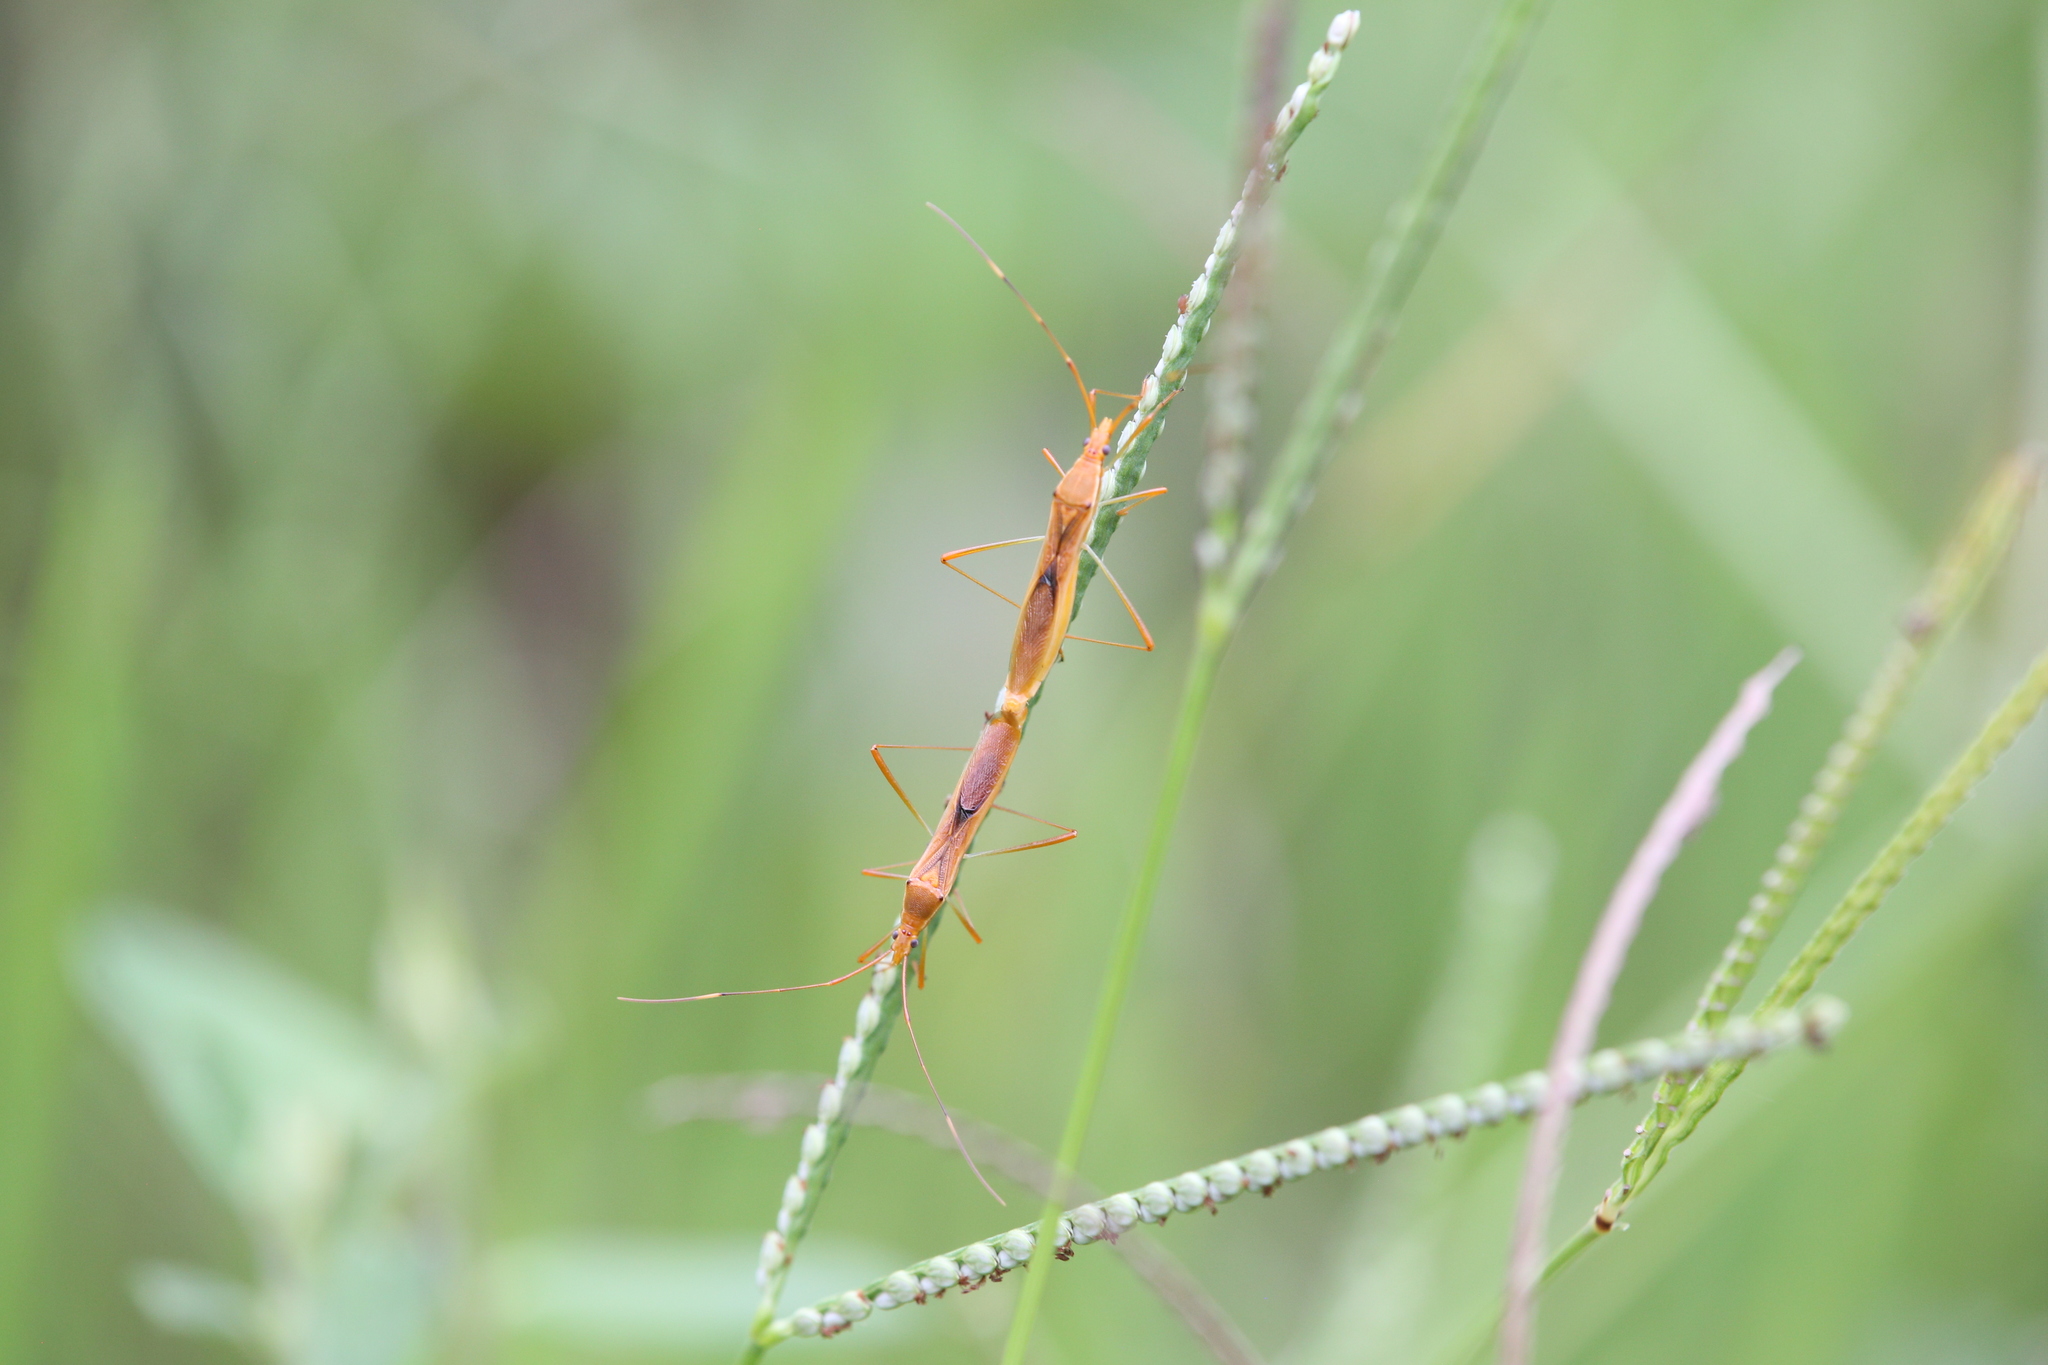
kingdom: Animalia
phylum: Arthropoda
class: Insecta
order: Hemiptera
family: Alydidae
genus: Leptocorisa
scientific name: Leptocorisa acuta
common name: Gandhi bug
